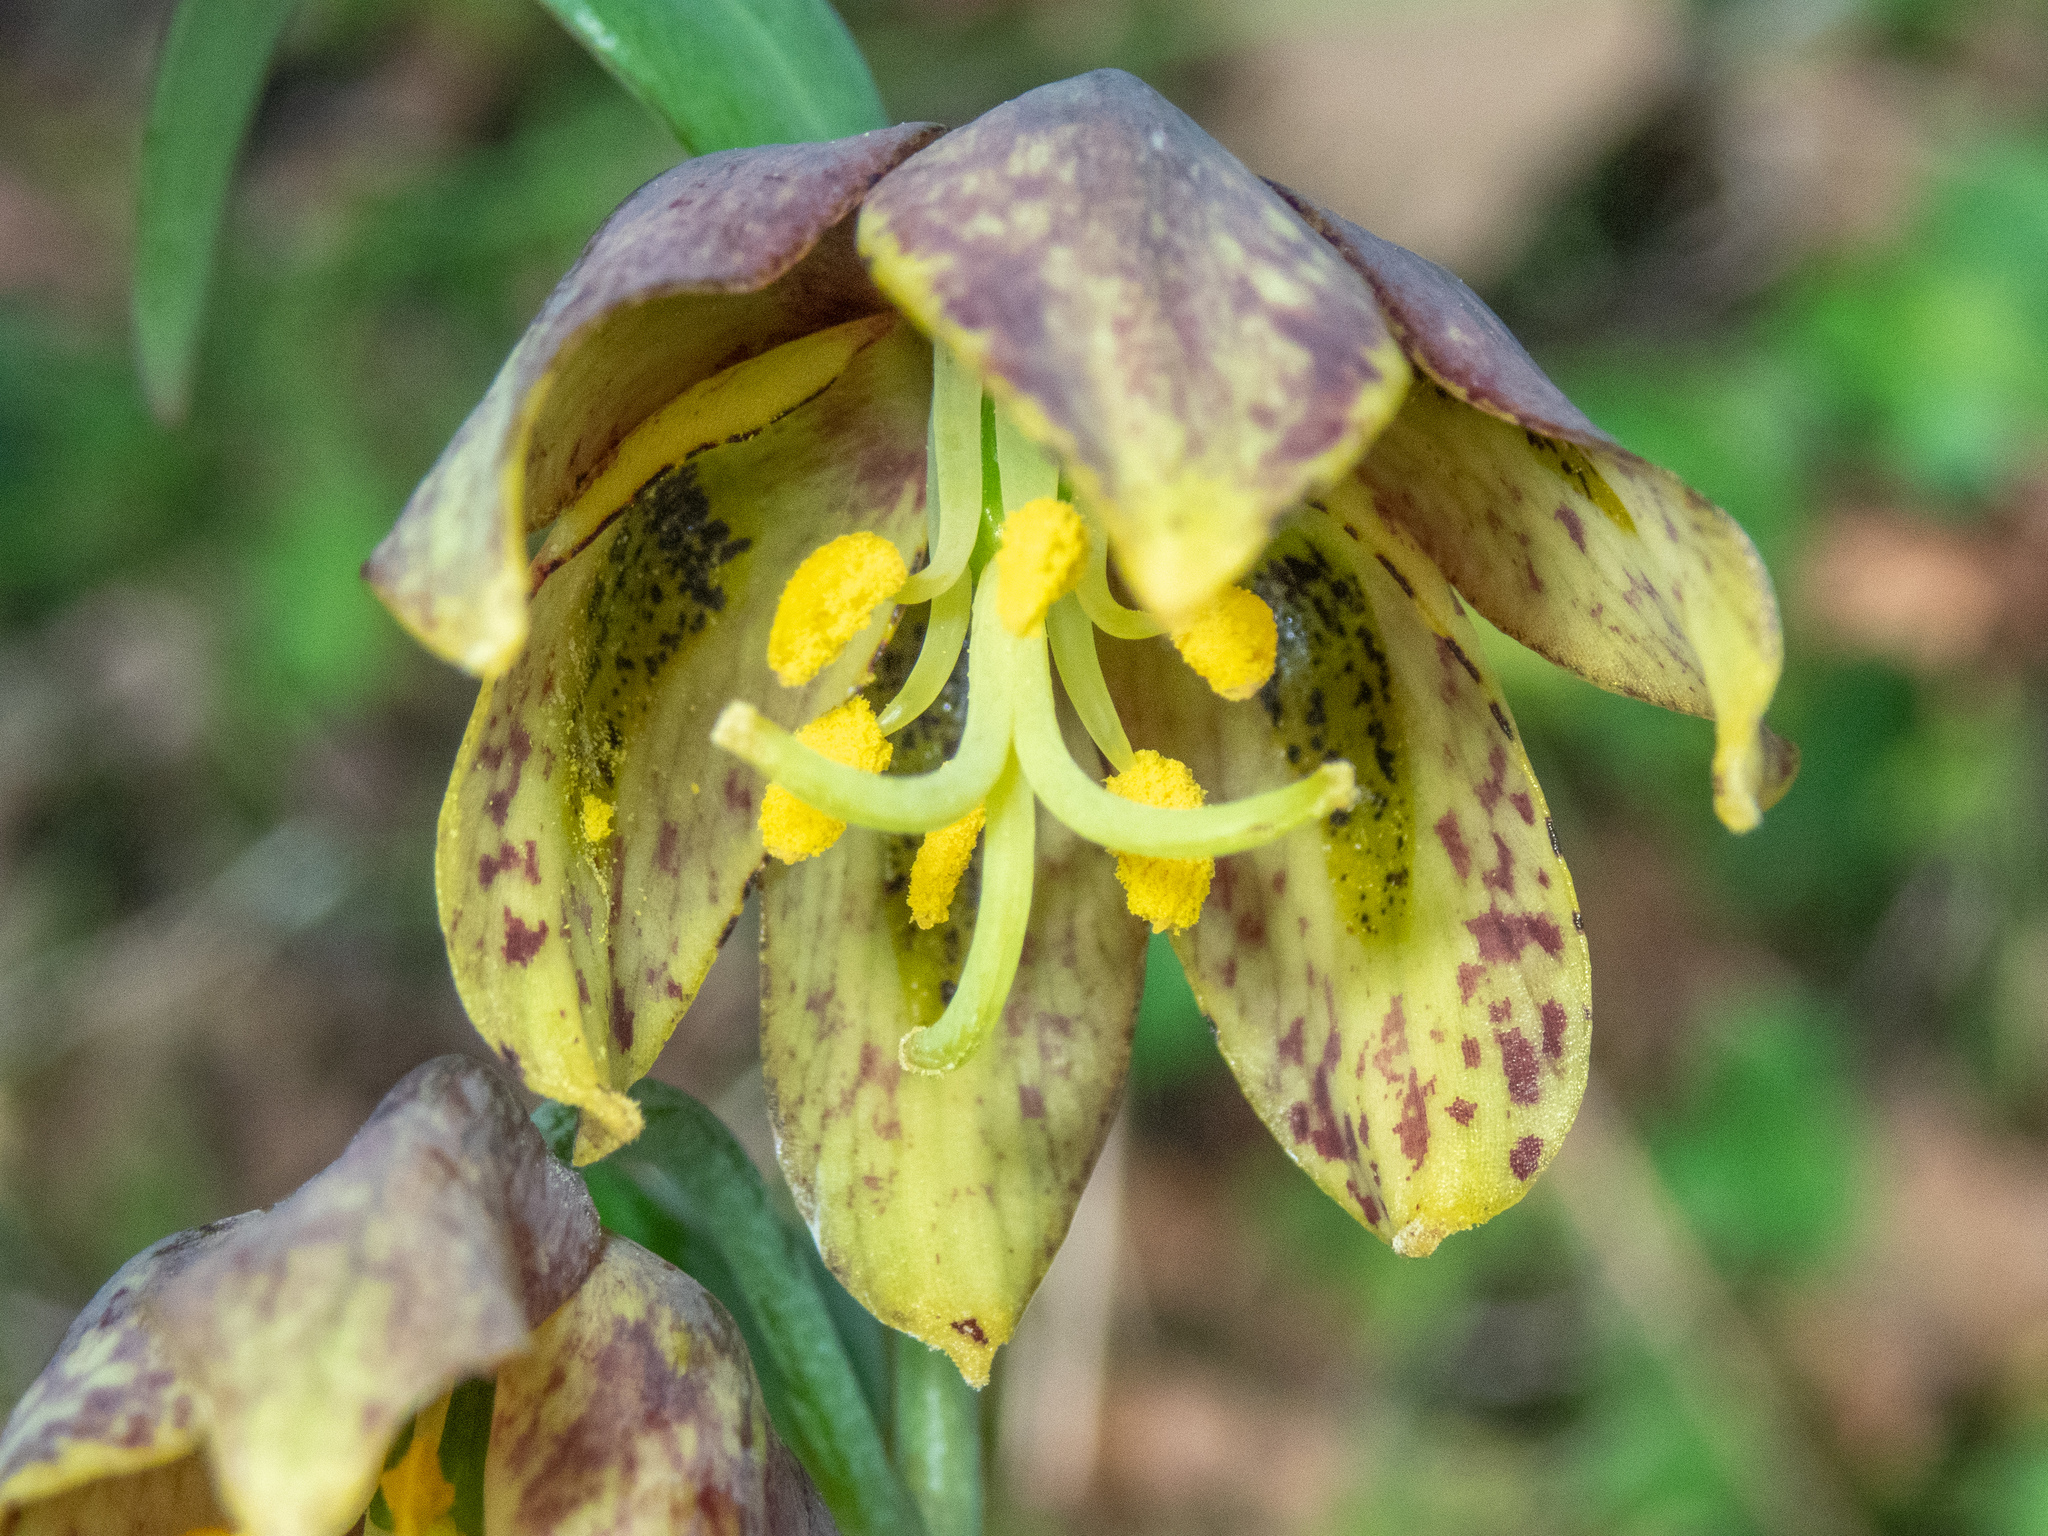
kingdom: Plantae
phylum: Tracheophyta
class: Liliopsida
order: Liliales
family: Liliaceae
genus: Fritillaria
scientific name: Fritillaria affinis
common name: Ojai fritillary
